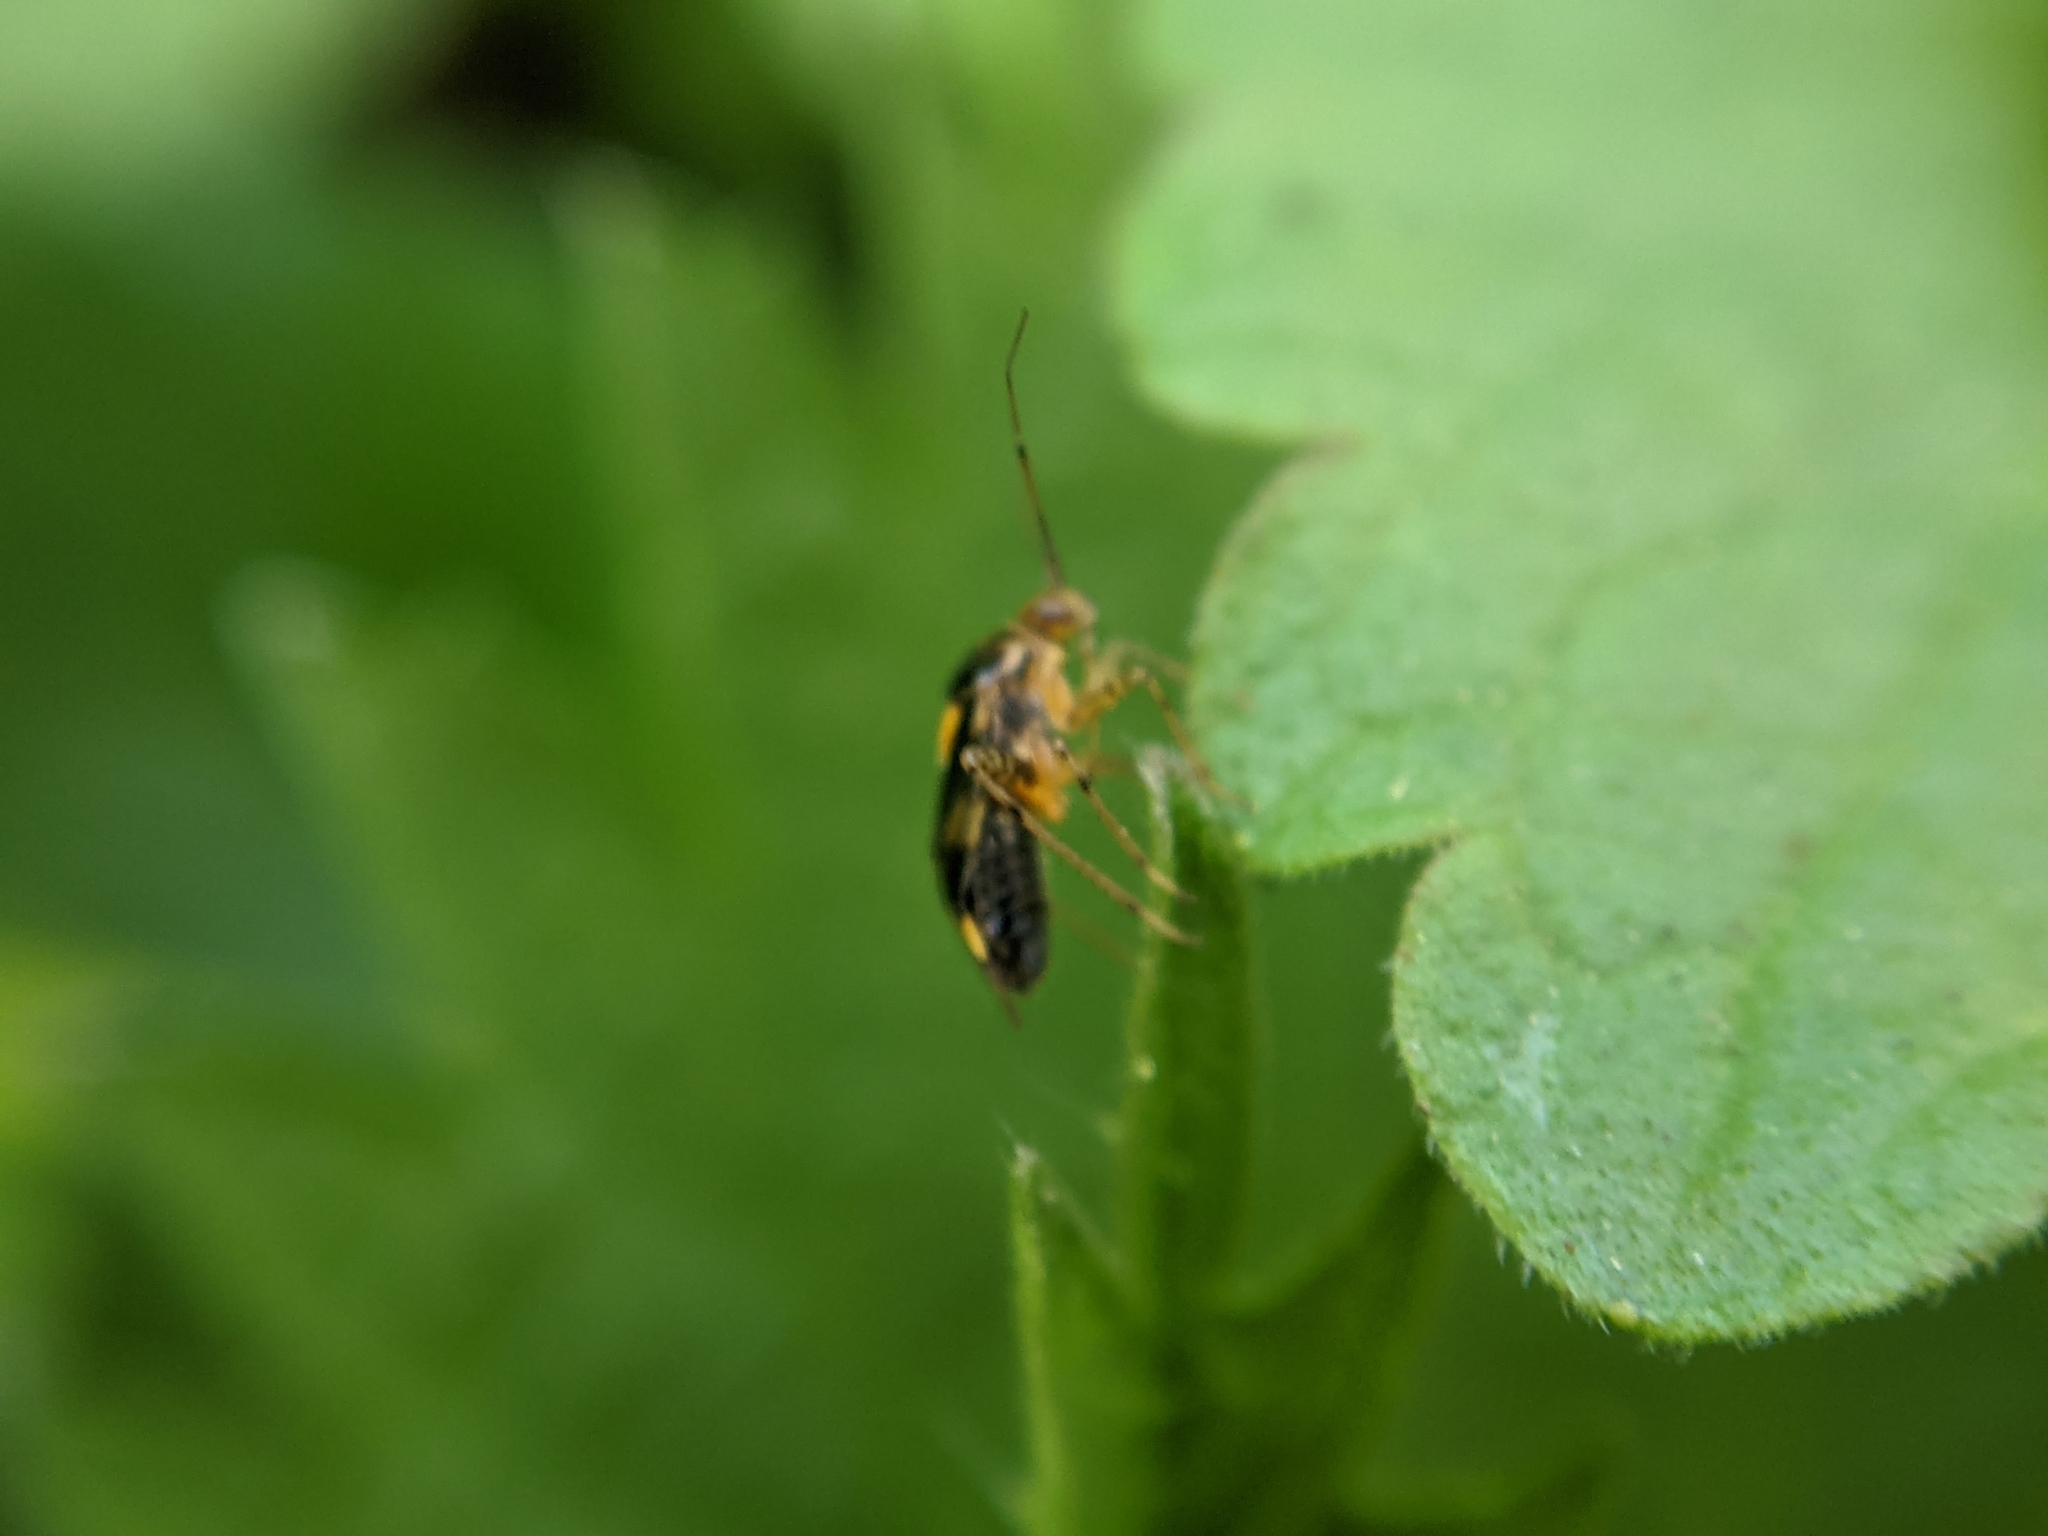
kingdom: Animalia
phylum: Arthropoda
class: Insecta
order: Hemiptera
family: Miridae
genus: Liocoris
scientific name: Liocoris tripustulatus
